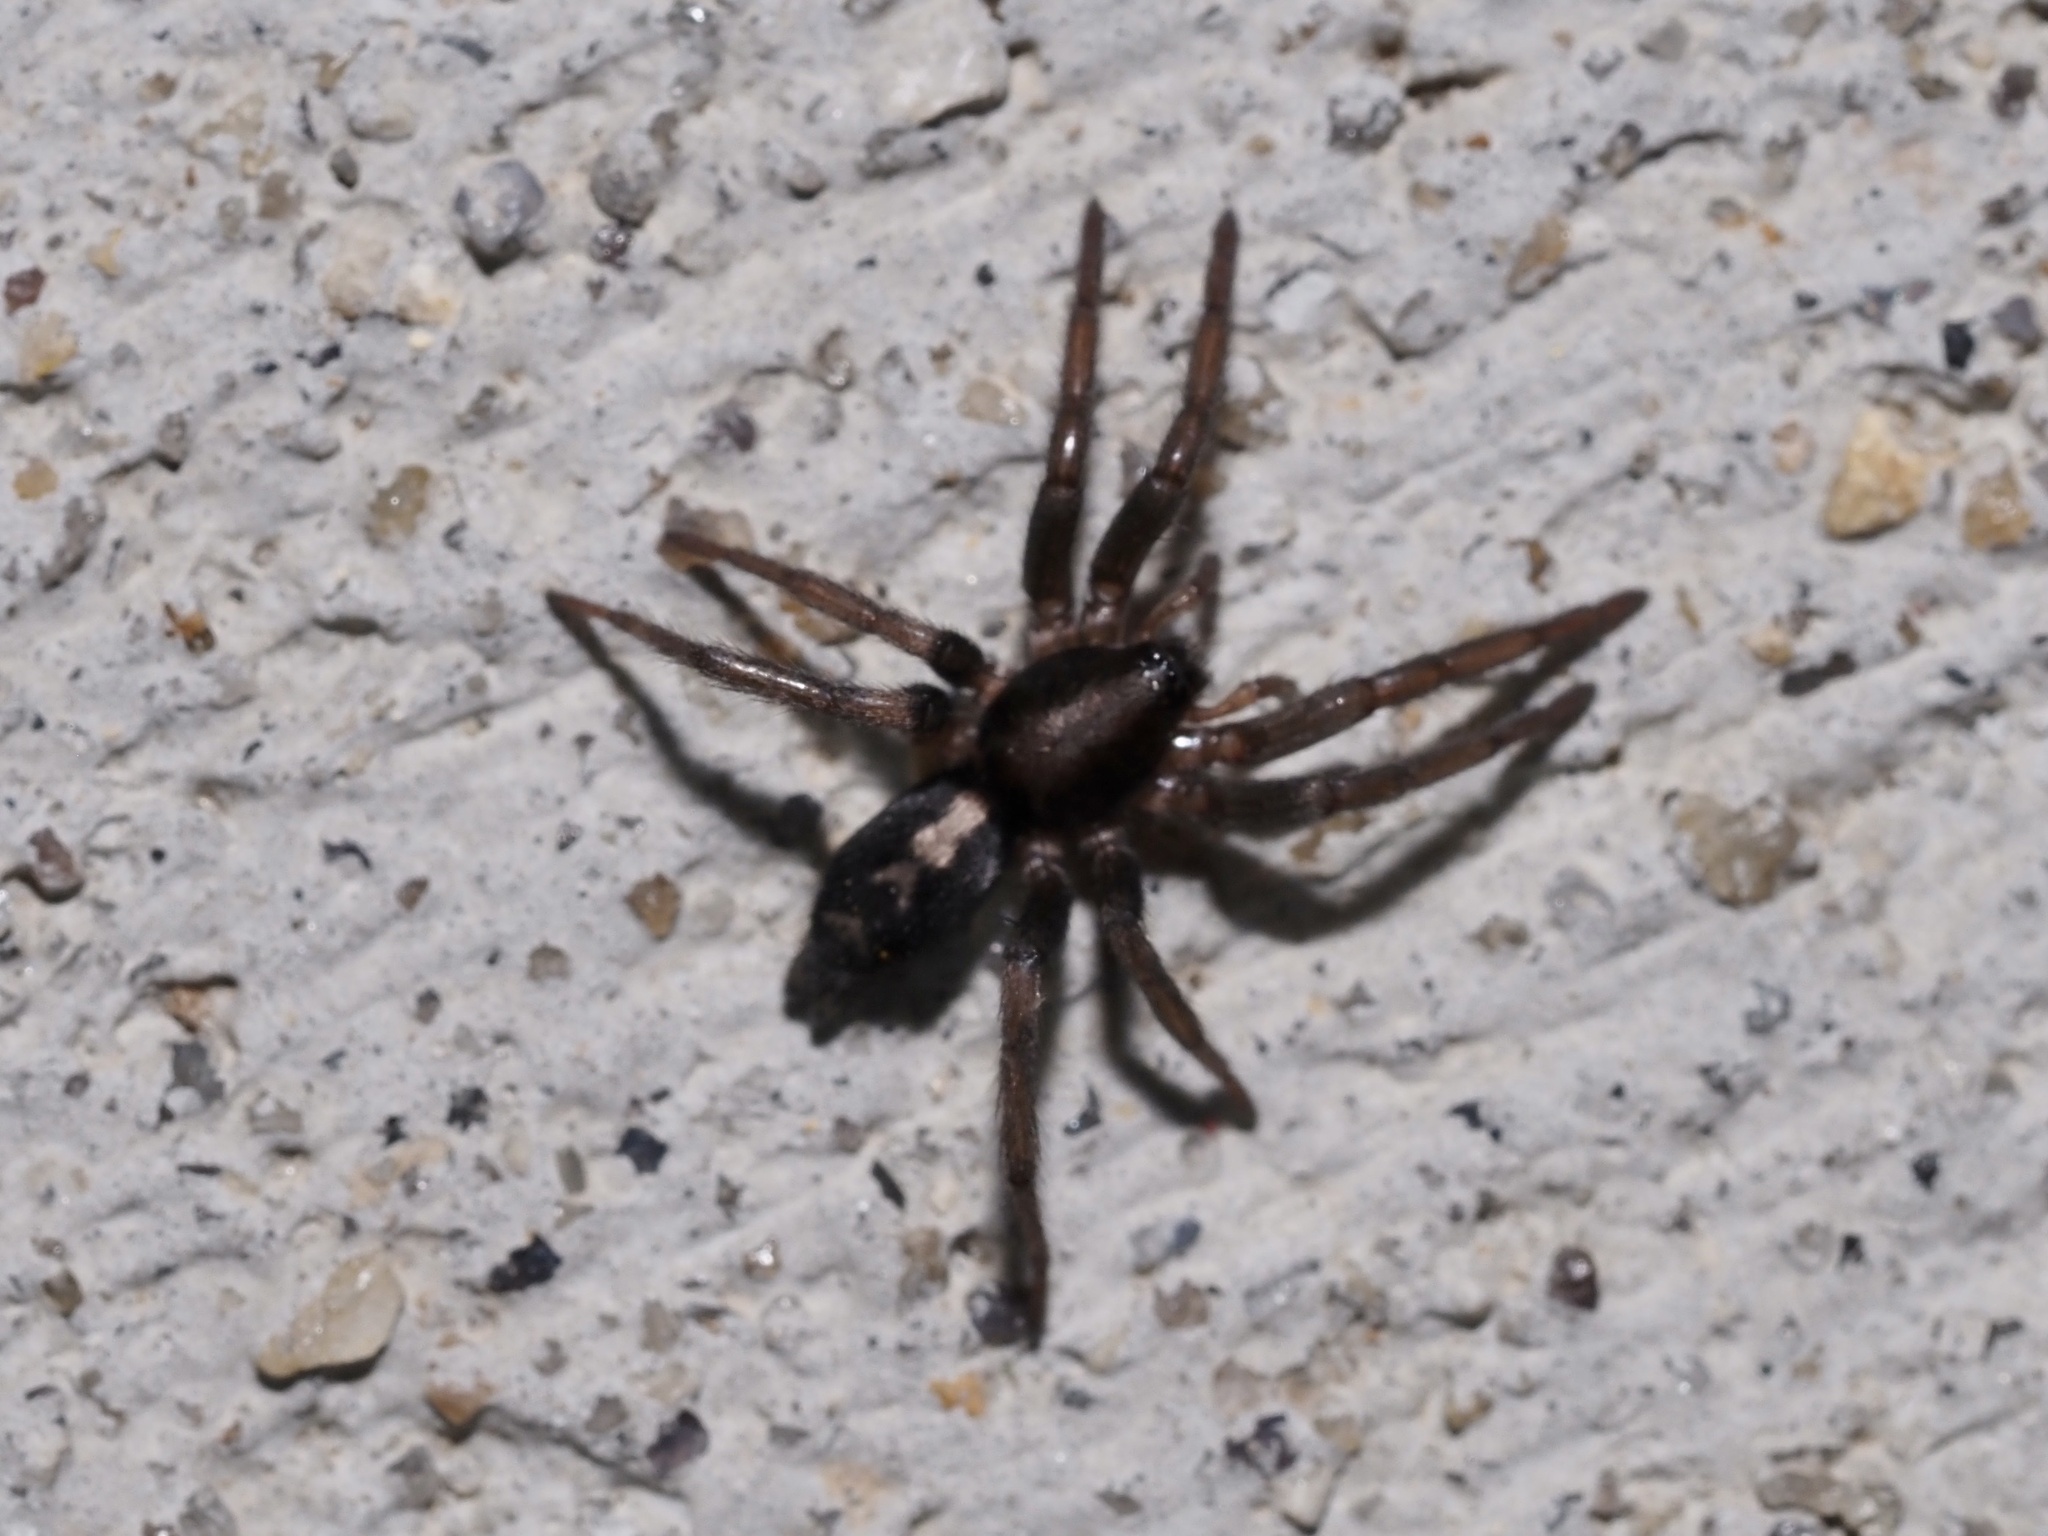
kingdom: Animalia
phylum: Arthropoda
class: Arachnida
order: Araneae
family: Gnaphosidae
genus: Herpyllus
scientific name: Herpyllus ecclesiasticus
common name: Eastern parson spider
